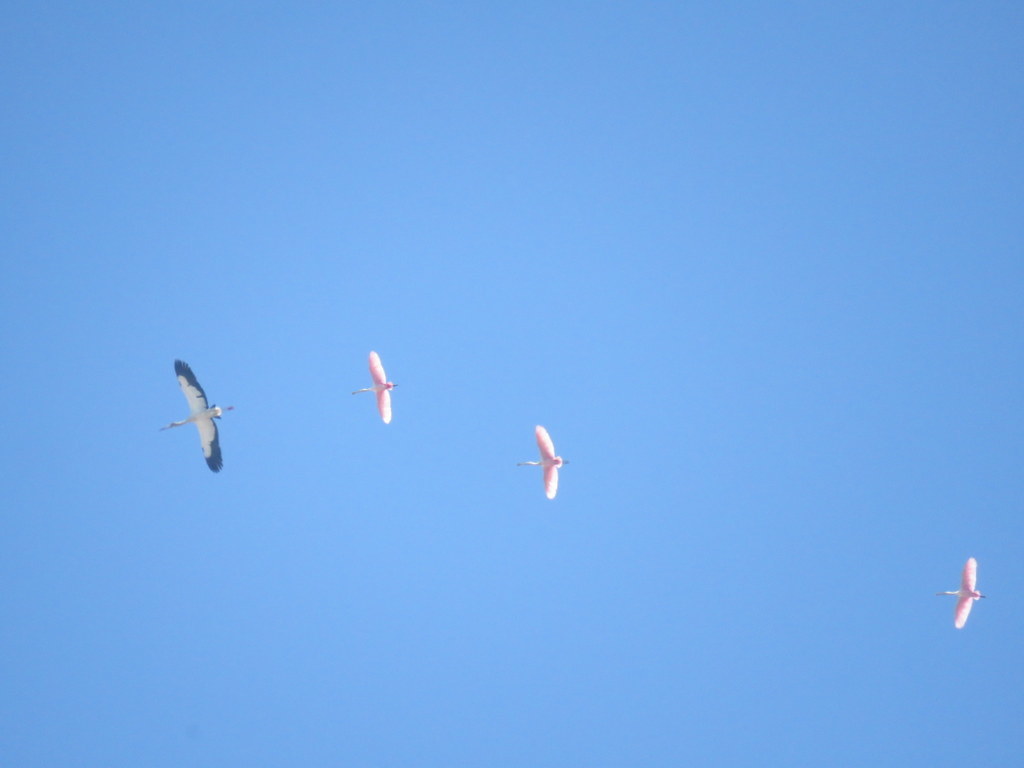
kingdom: Animalia
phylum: Chordata
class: Aves
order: Pelecaniformes
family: Threskiornithidae
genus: Platalea
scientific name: Platalea ajaja
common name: Roseate spoonbill
